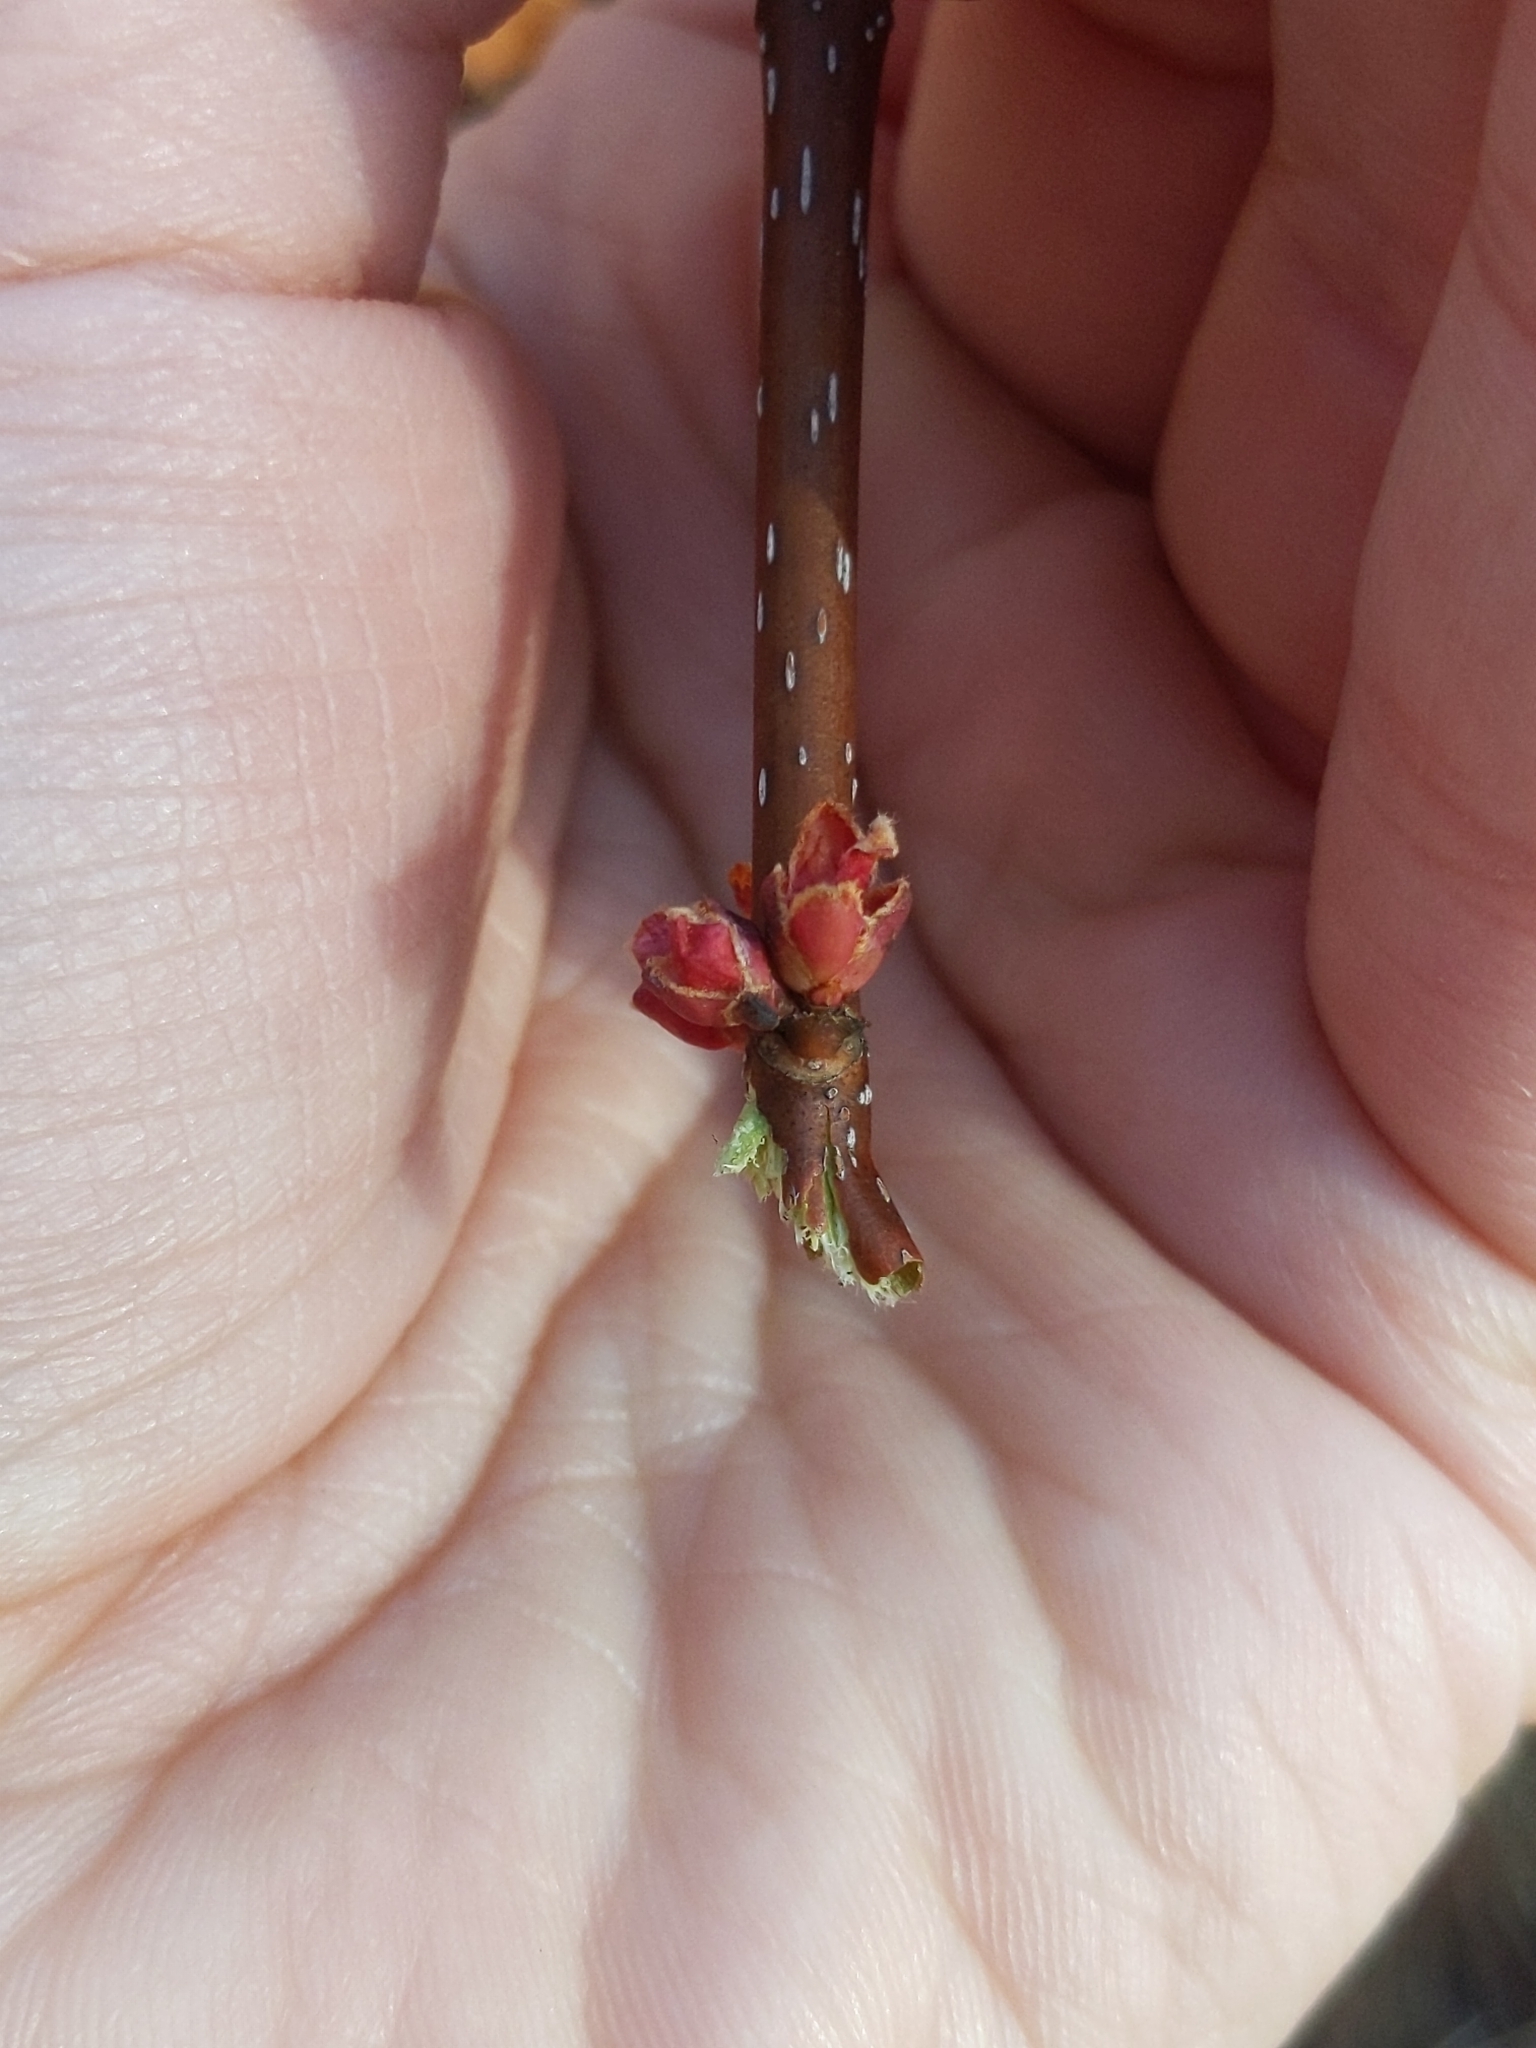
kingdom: Plantae
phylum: Tracheophyta
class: Magnoliopsida
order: Sapindales
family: Sapindaceae
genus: Acer
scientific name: Acer rubrum
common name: Red maple
